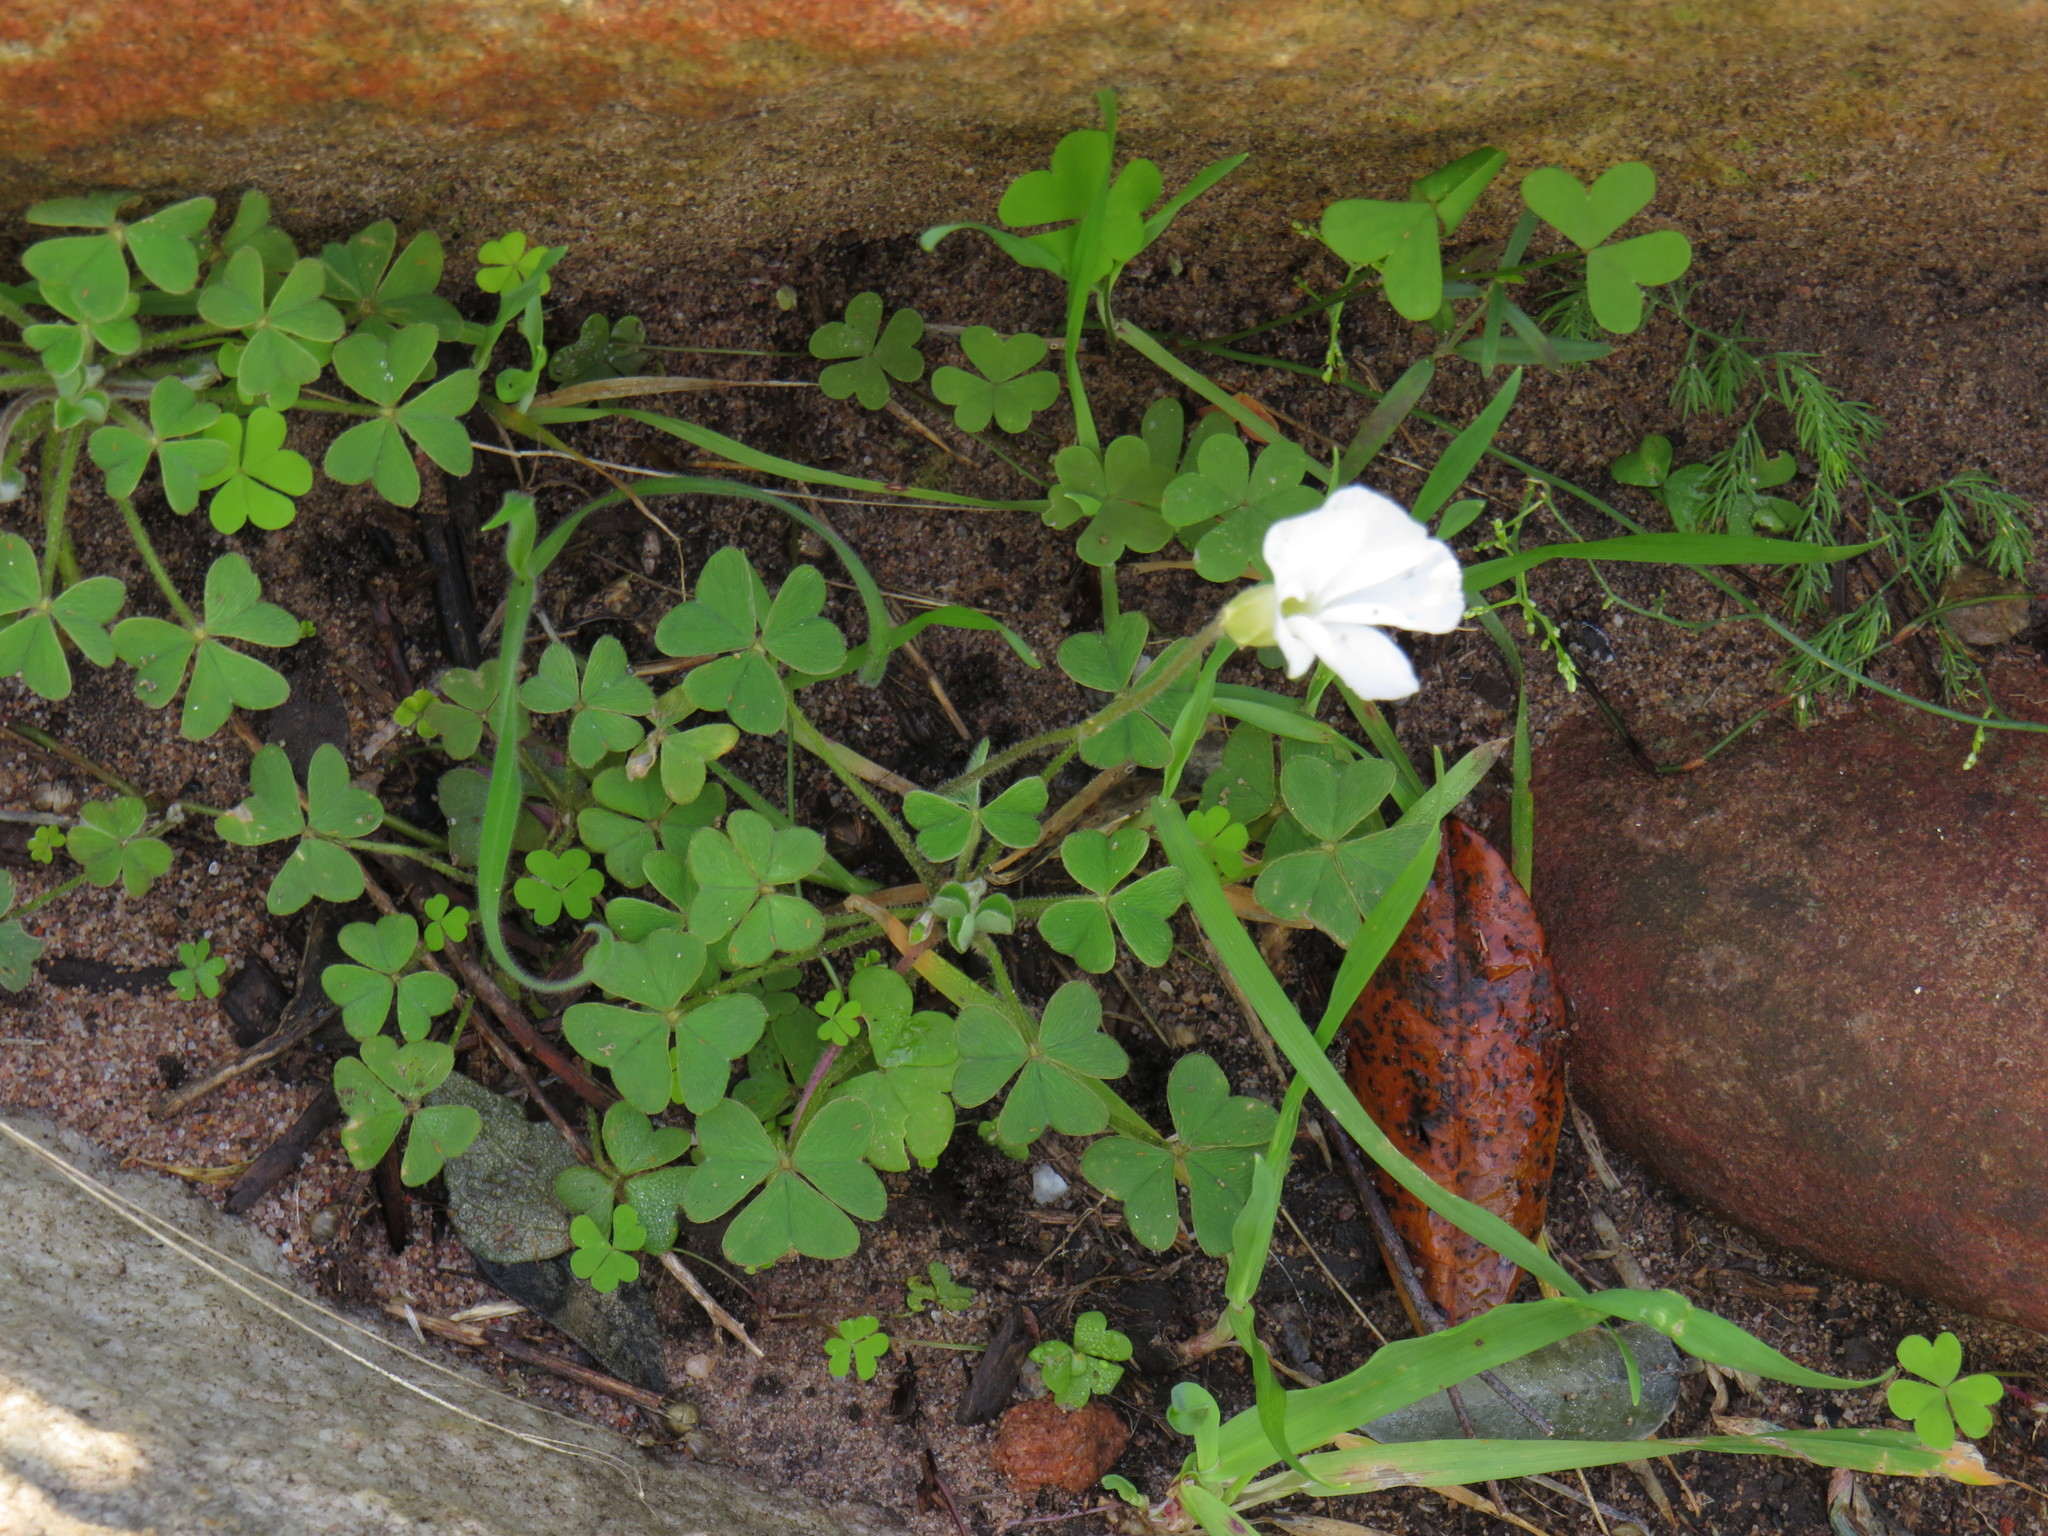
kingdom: Plantae
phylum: Tracheophyta
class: Magnoliopsida
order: Oxalidales
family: Oxalidaceae
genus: Oxalis
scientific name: Oxalis lanata
